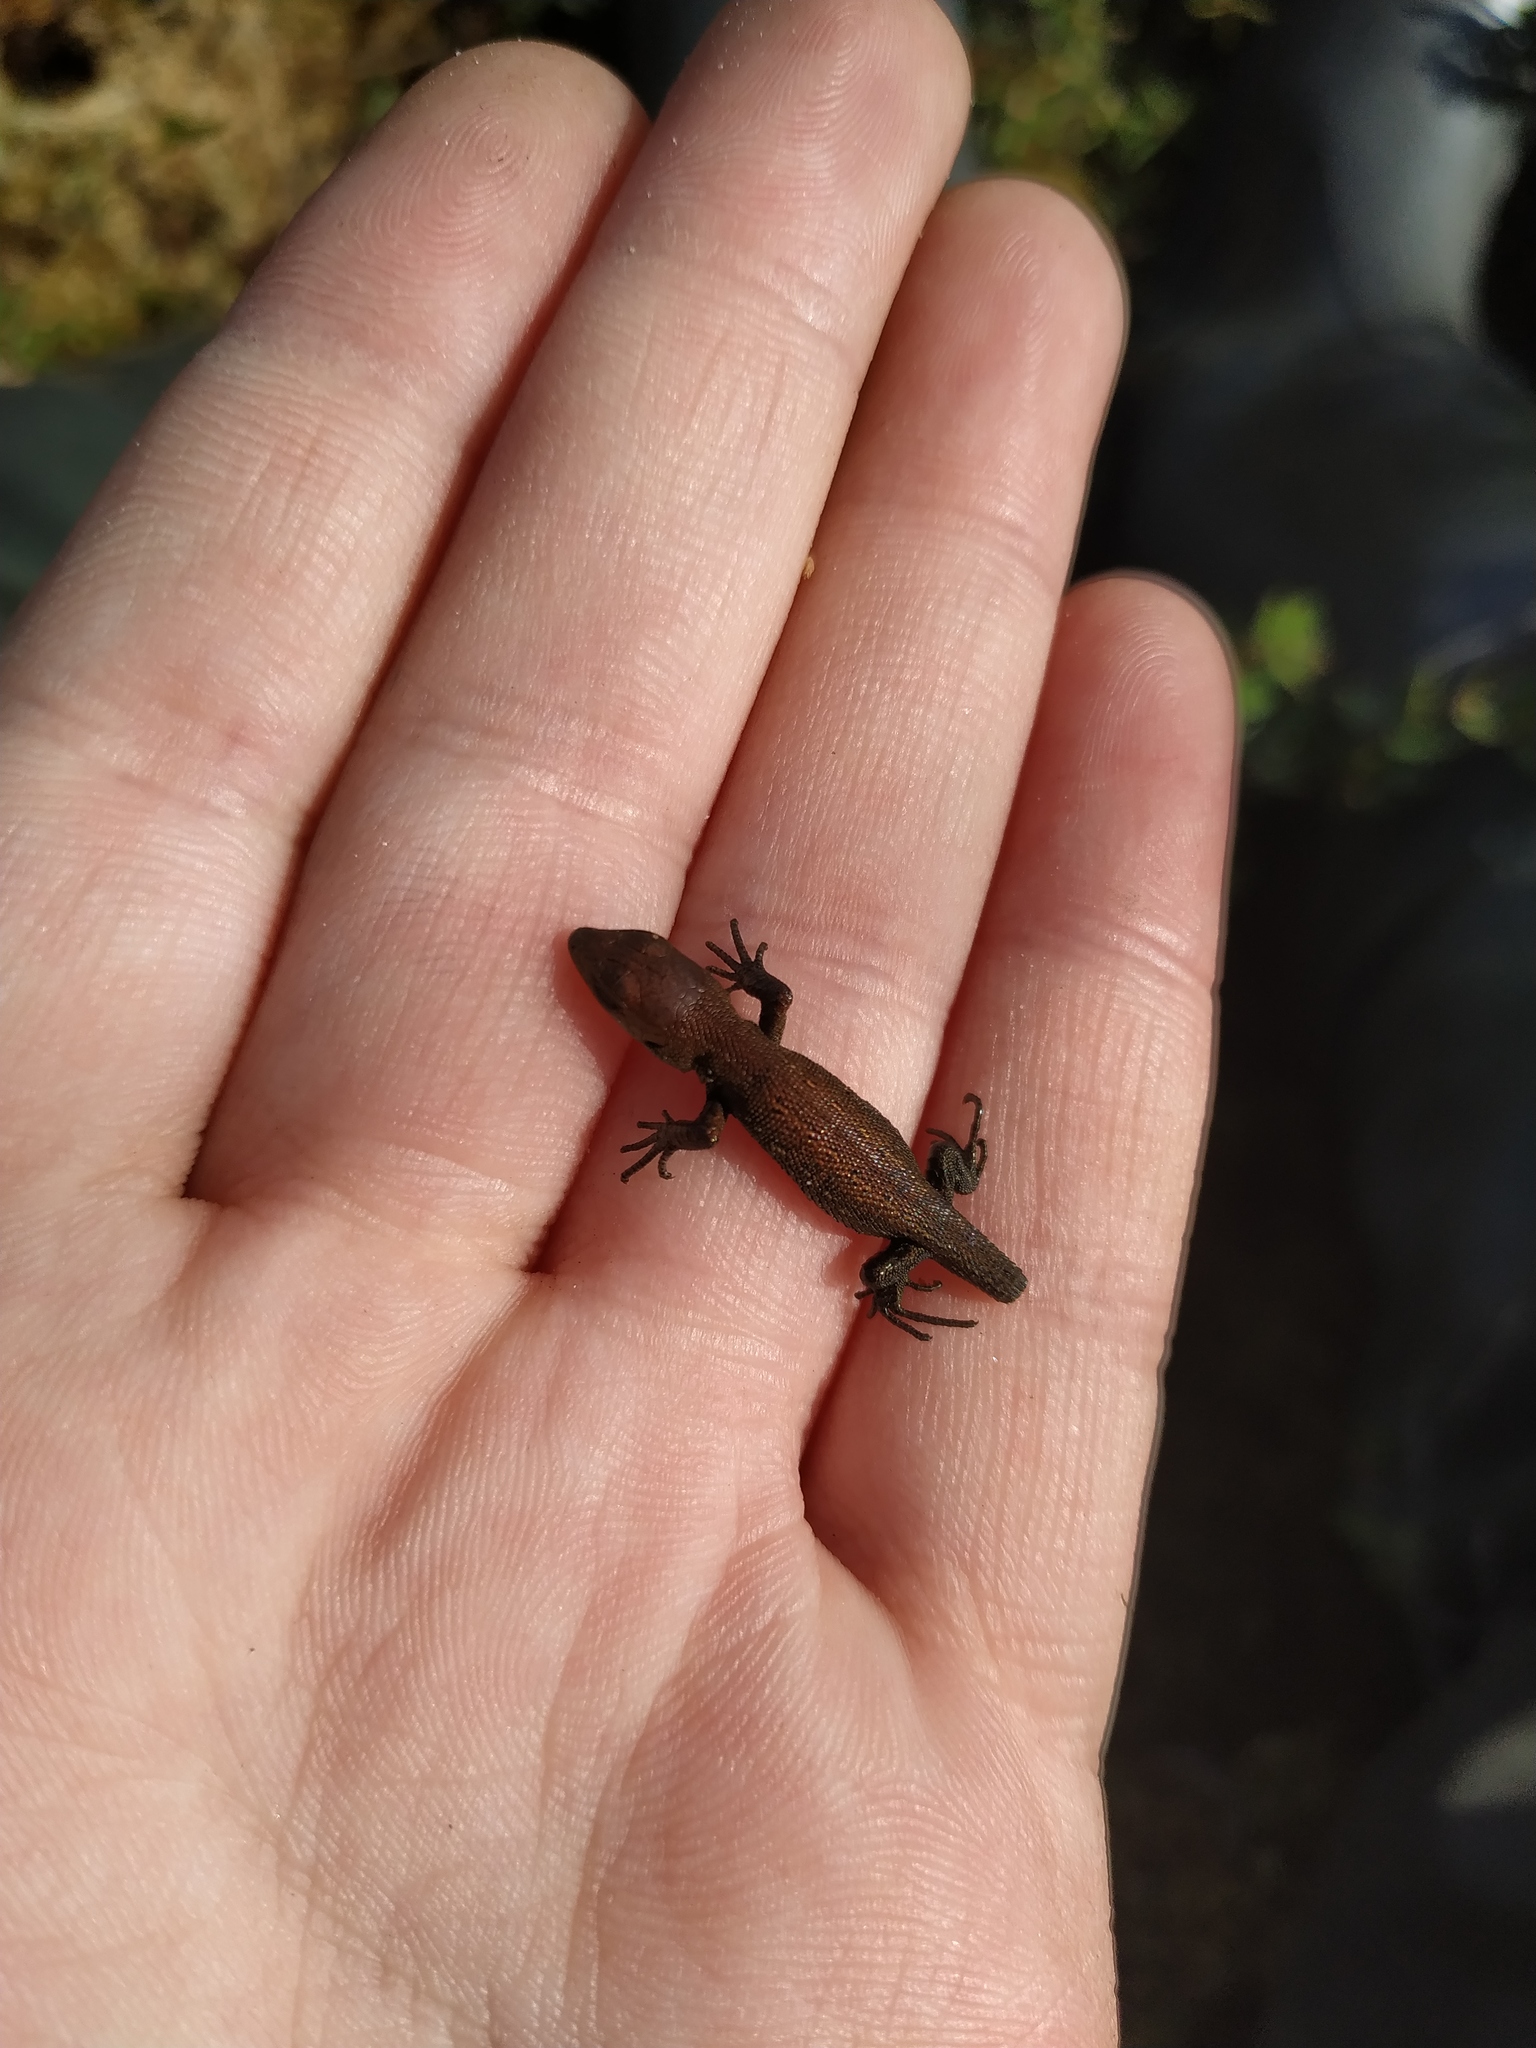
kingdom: Animalia
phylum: Chordata
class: Squamata
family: Lacertidae
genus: Zootoca
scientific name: Zootoca vivipara
